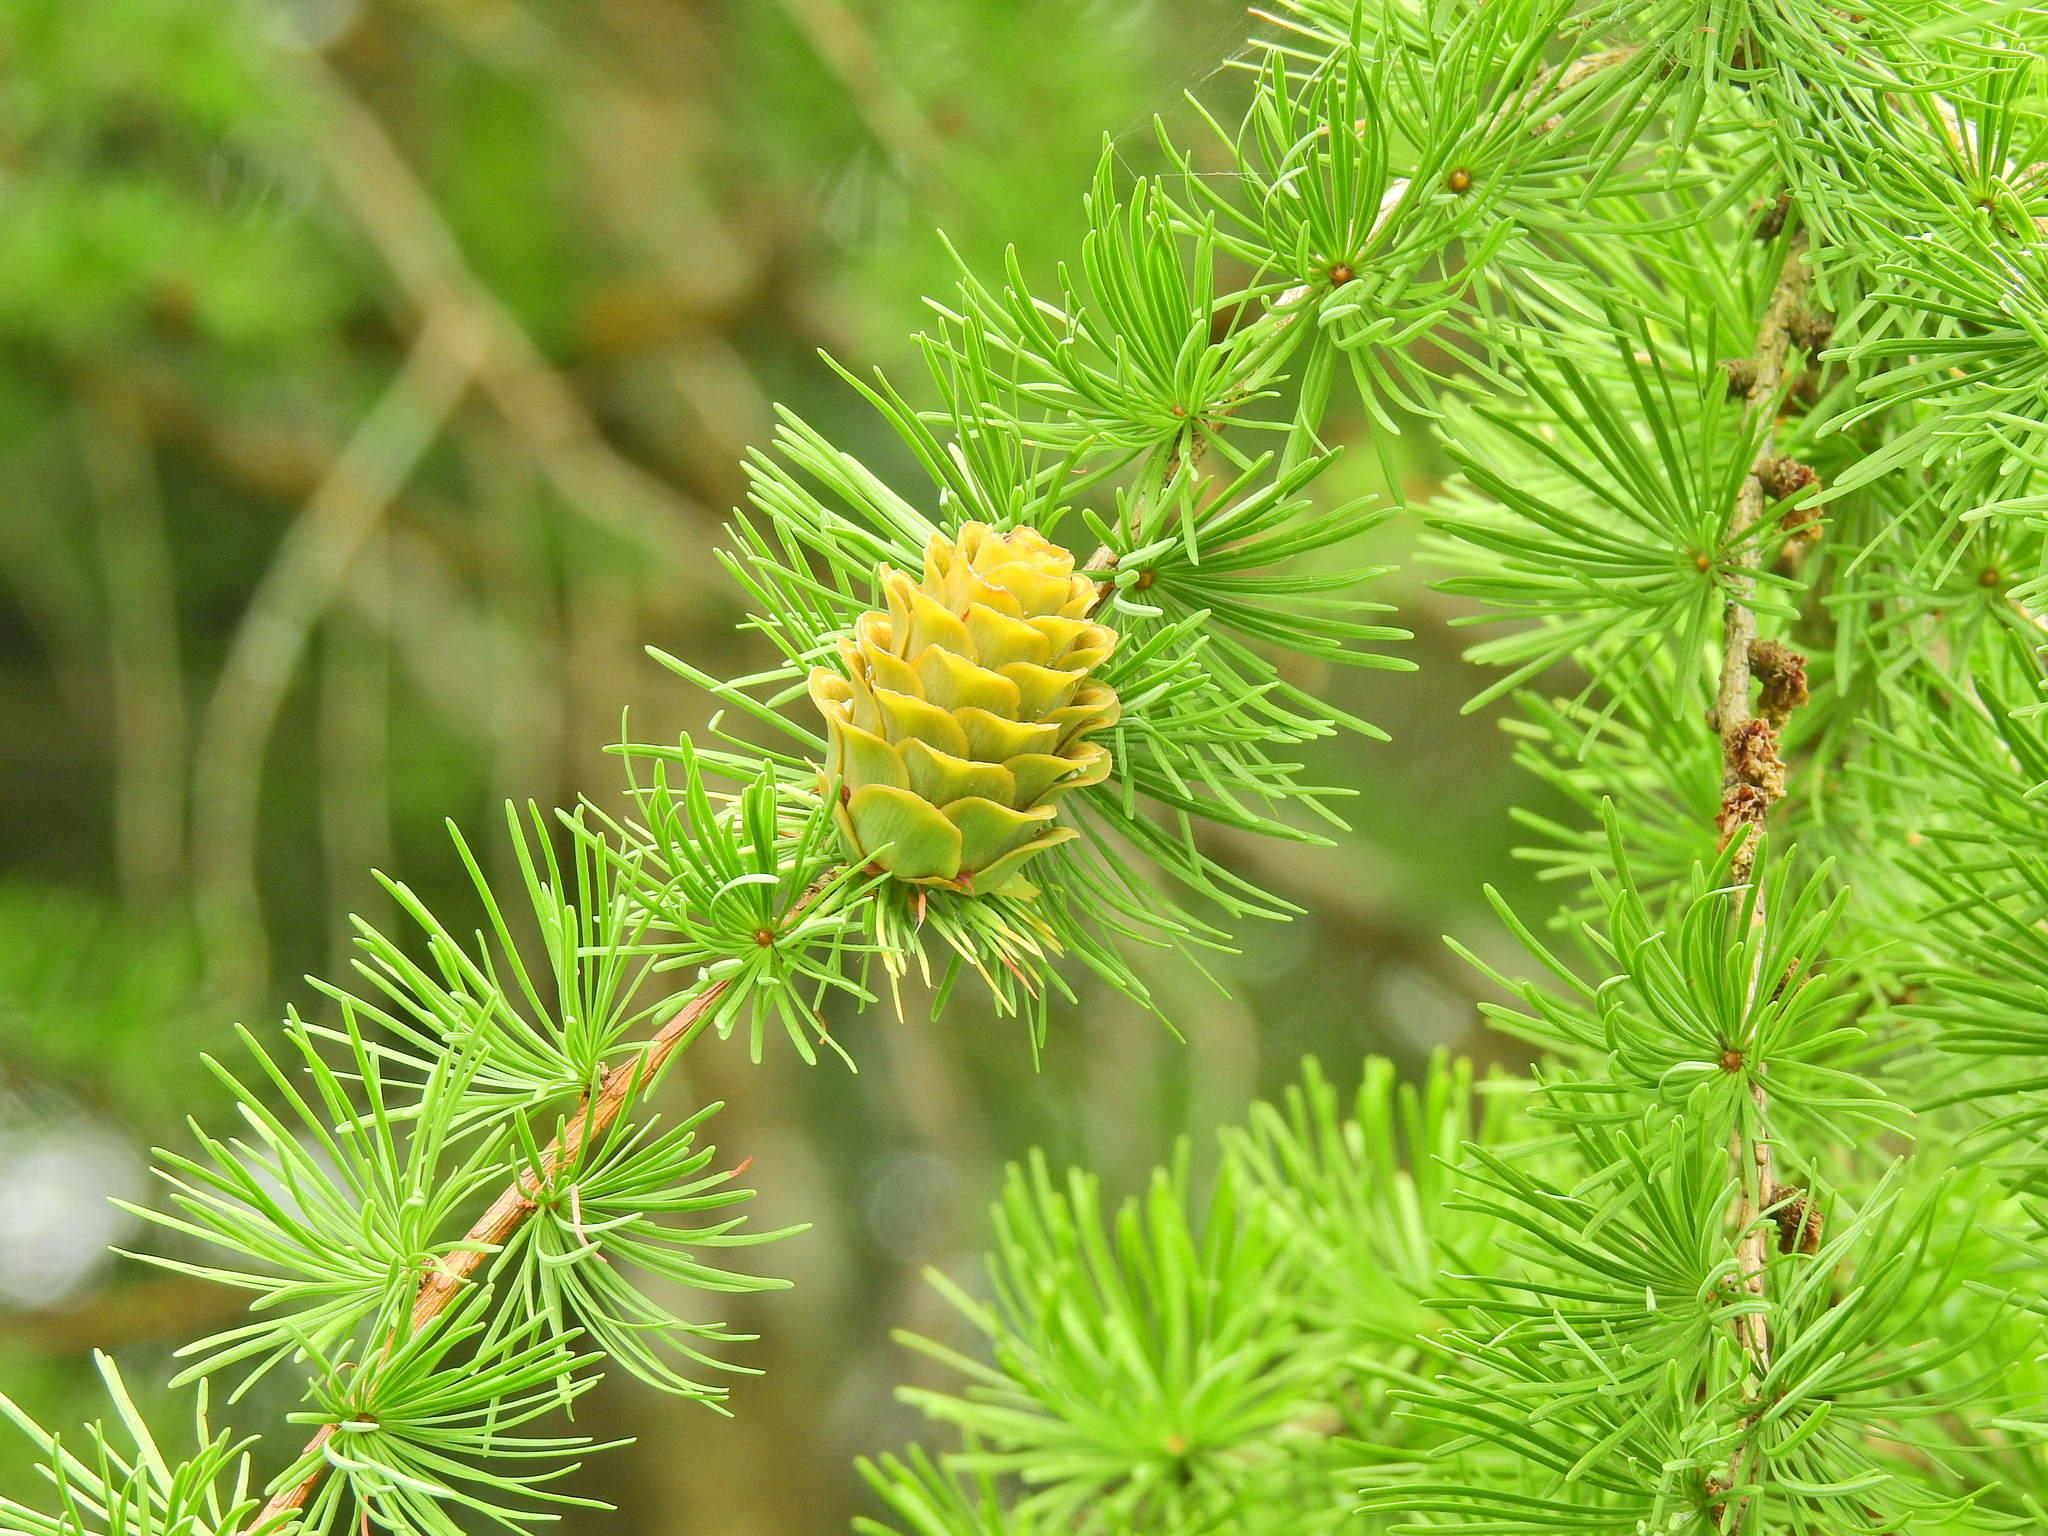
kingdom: Plantae
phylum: Tracheophyta
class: Pinopsida
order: Pinales
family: Pinaceae
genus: Larix
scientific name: Larix decidua
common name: European larch
